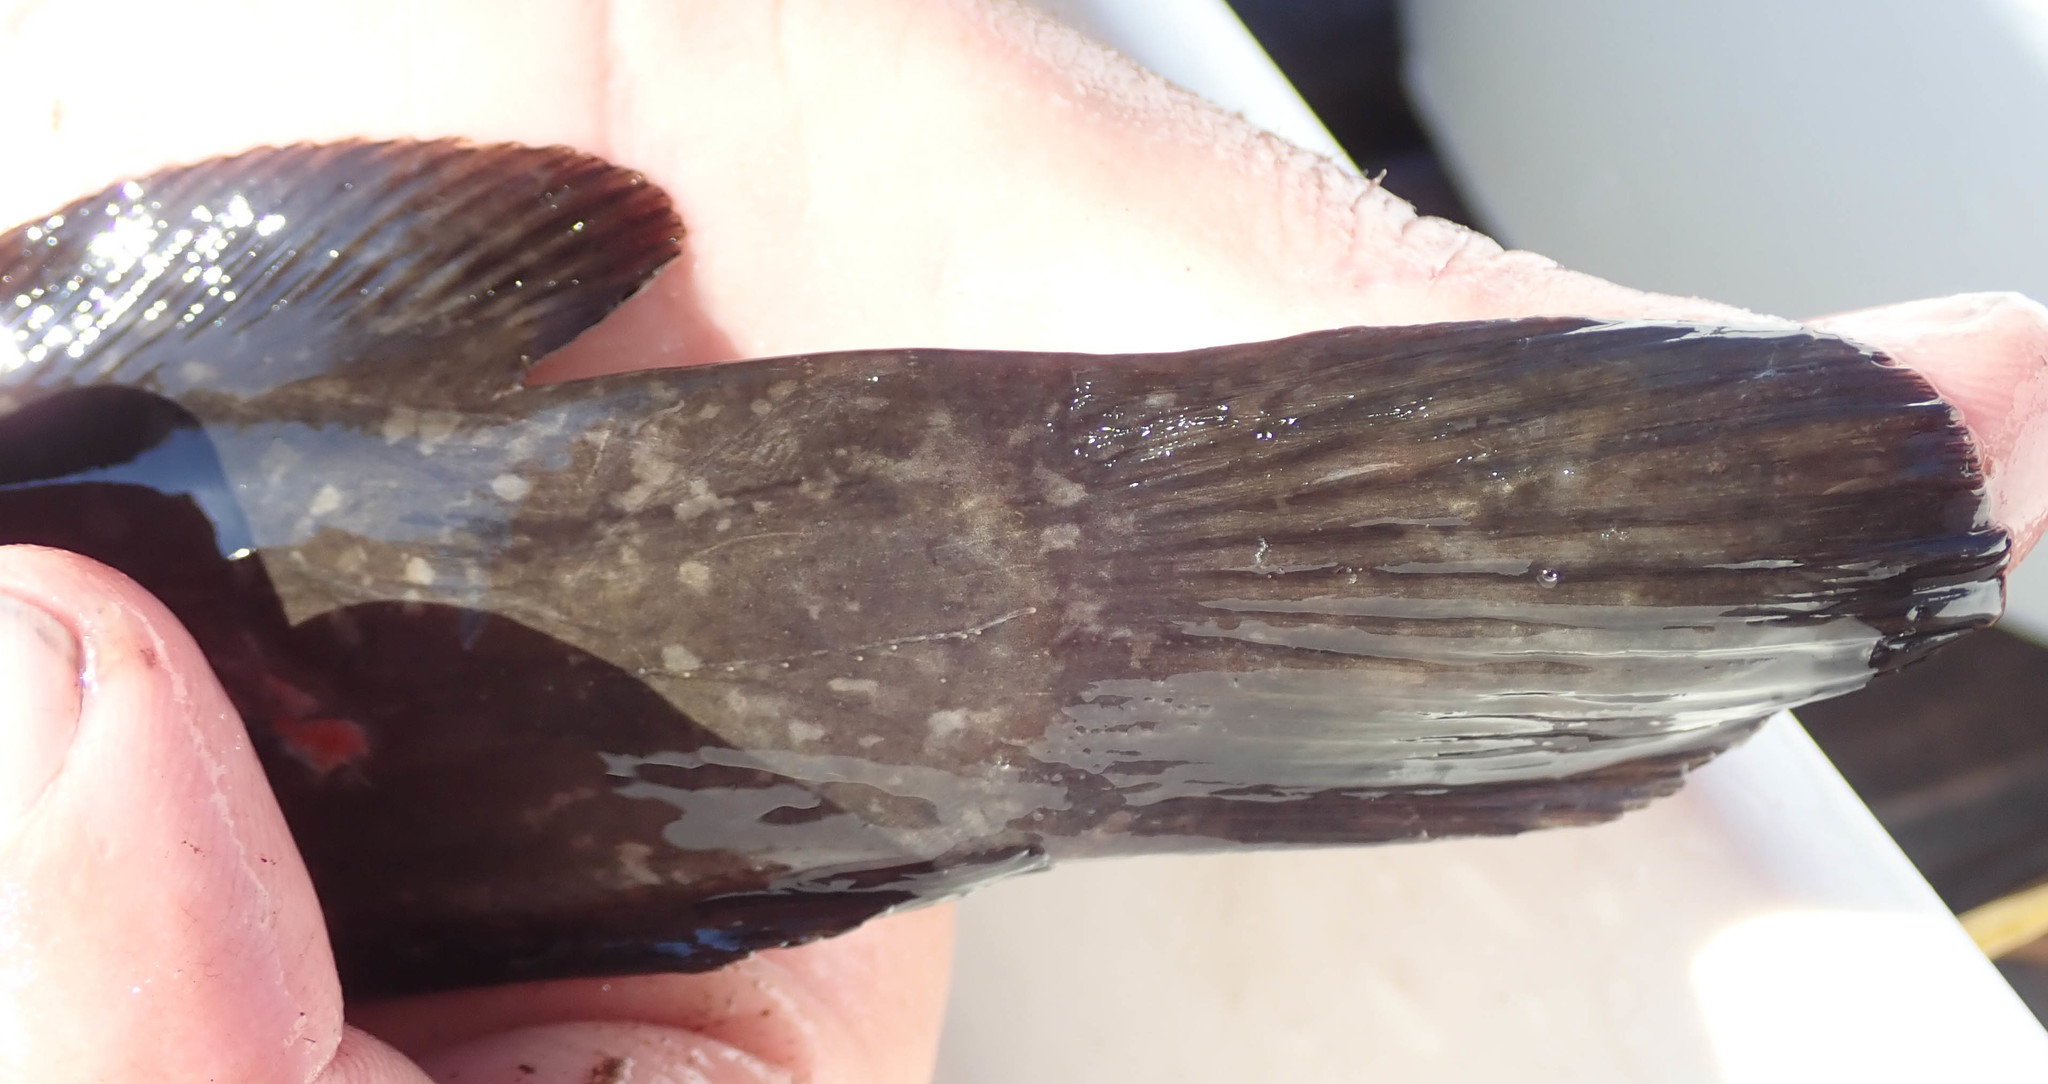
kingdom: Animalia
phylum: Chordata
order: Siluriformes
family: Clariidae
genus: Clarias
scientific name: Clarias ngamensis
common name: Blunt-toothed african catfish
